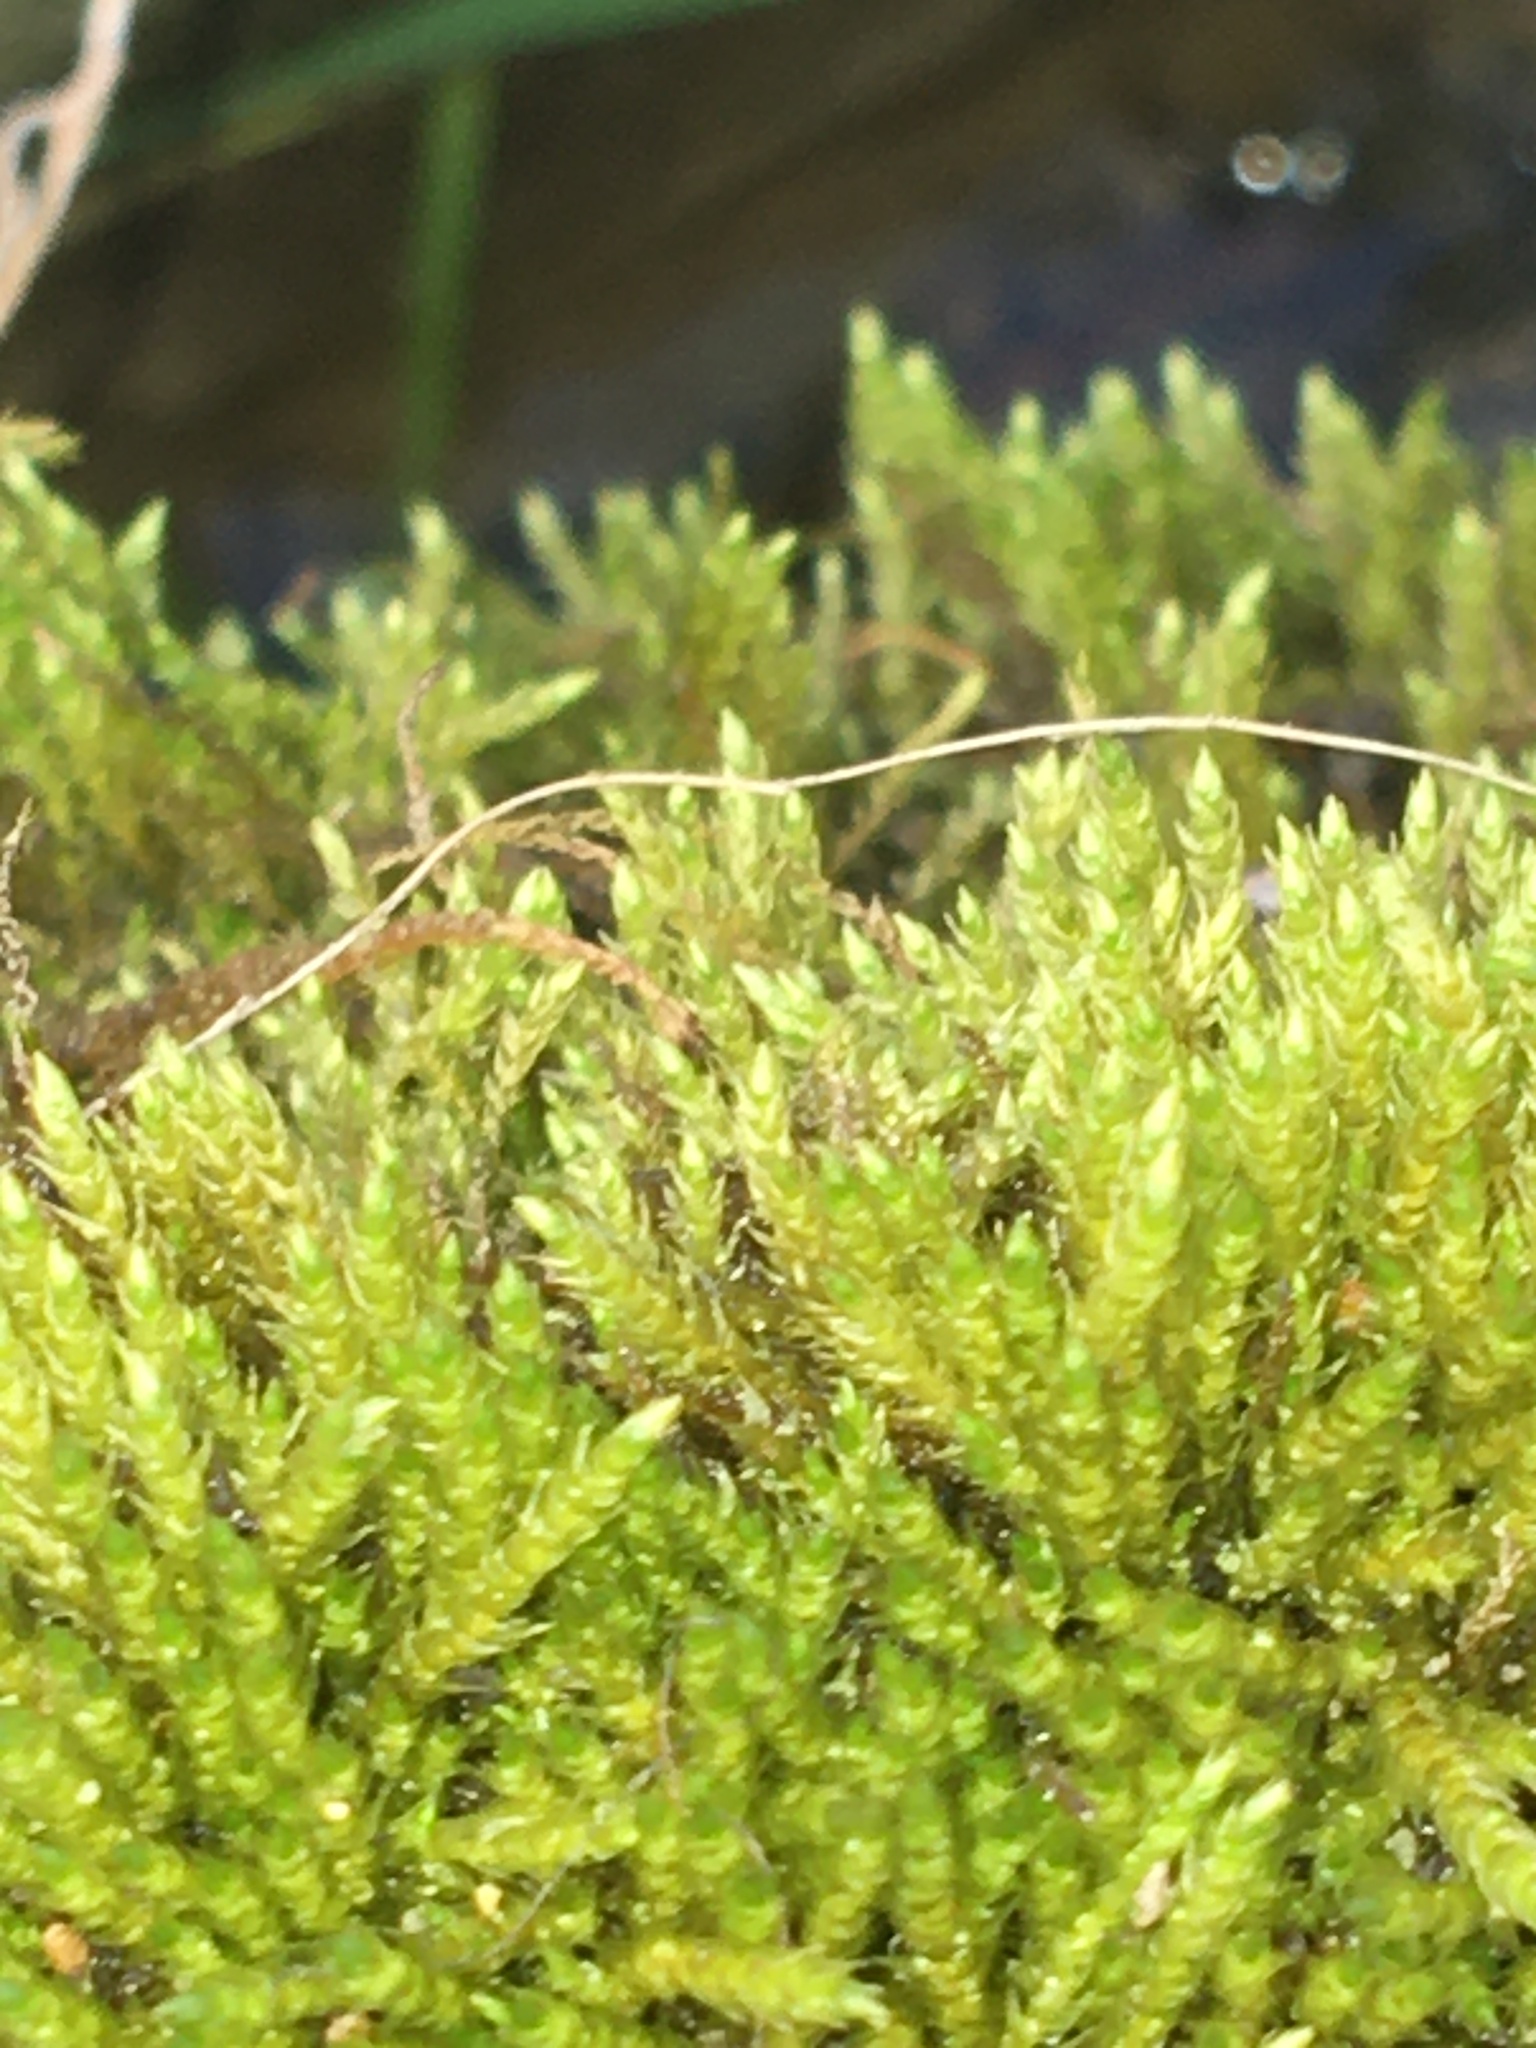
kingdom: Plantae
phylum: Bryophyta
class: Bryopsida
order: Hypnales
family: Amblystegiaceae
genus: Hygroamblystegium
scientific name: Hygroamblystegium varium
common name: Willow feather-moss
